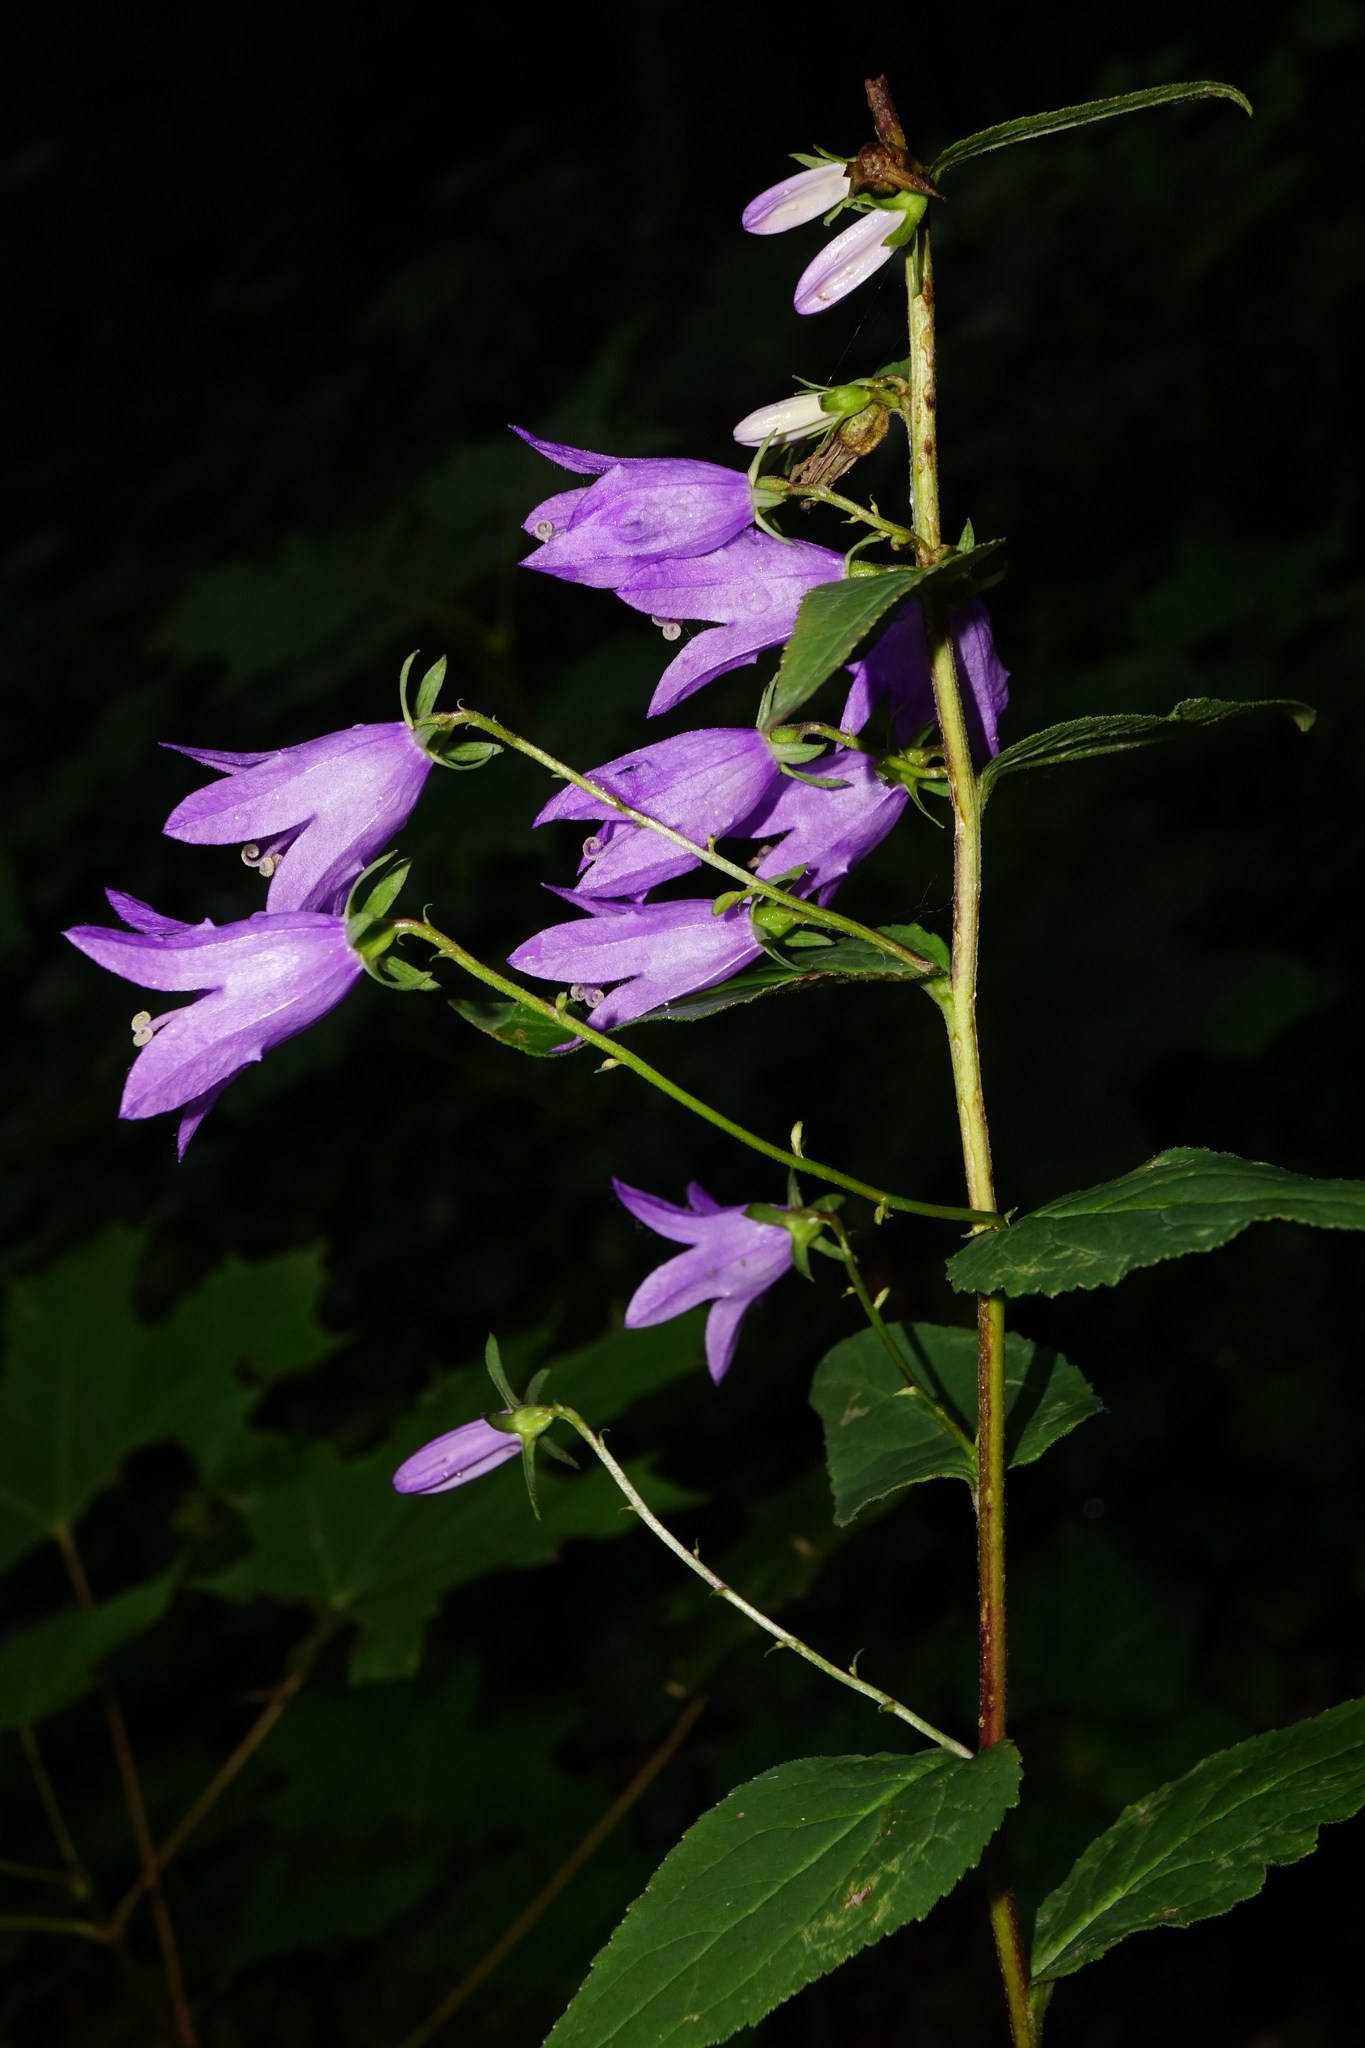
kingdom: Plantae
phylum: Tracheophyta
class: Magnoliopsida
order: Asterales
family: Campanulaceae
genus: Campanula
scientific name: Campanula rapunculoides
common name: Creeping bellflower
